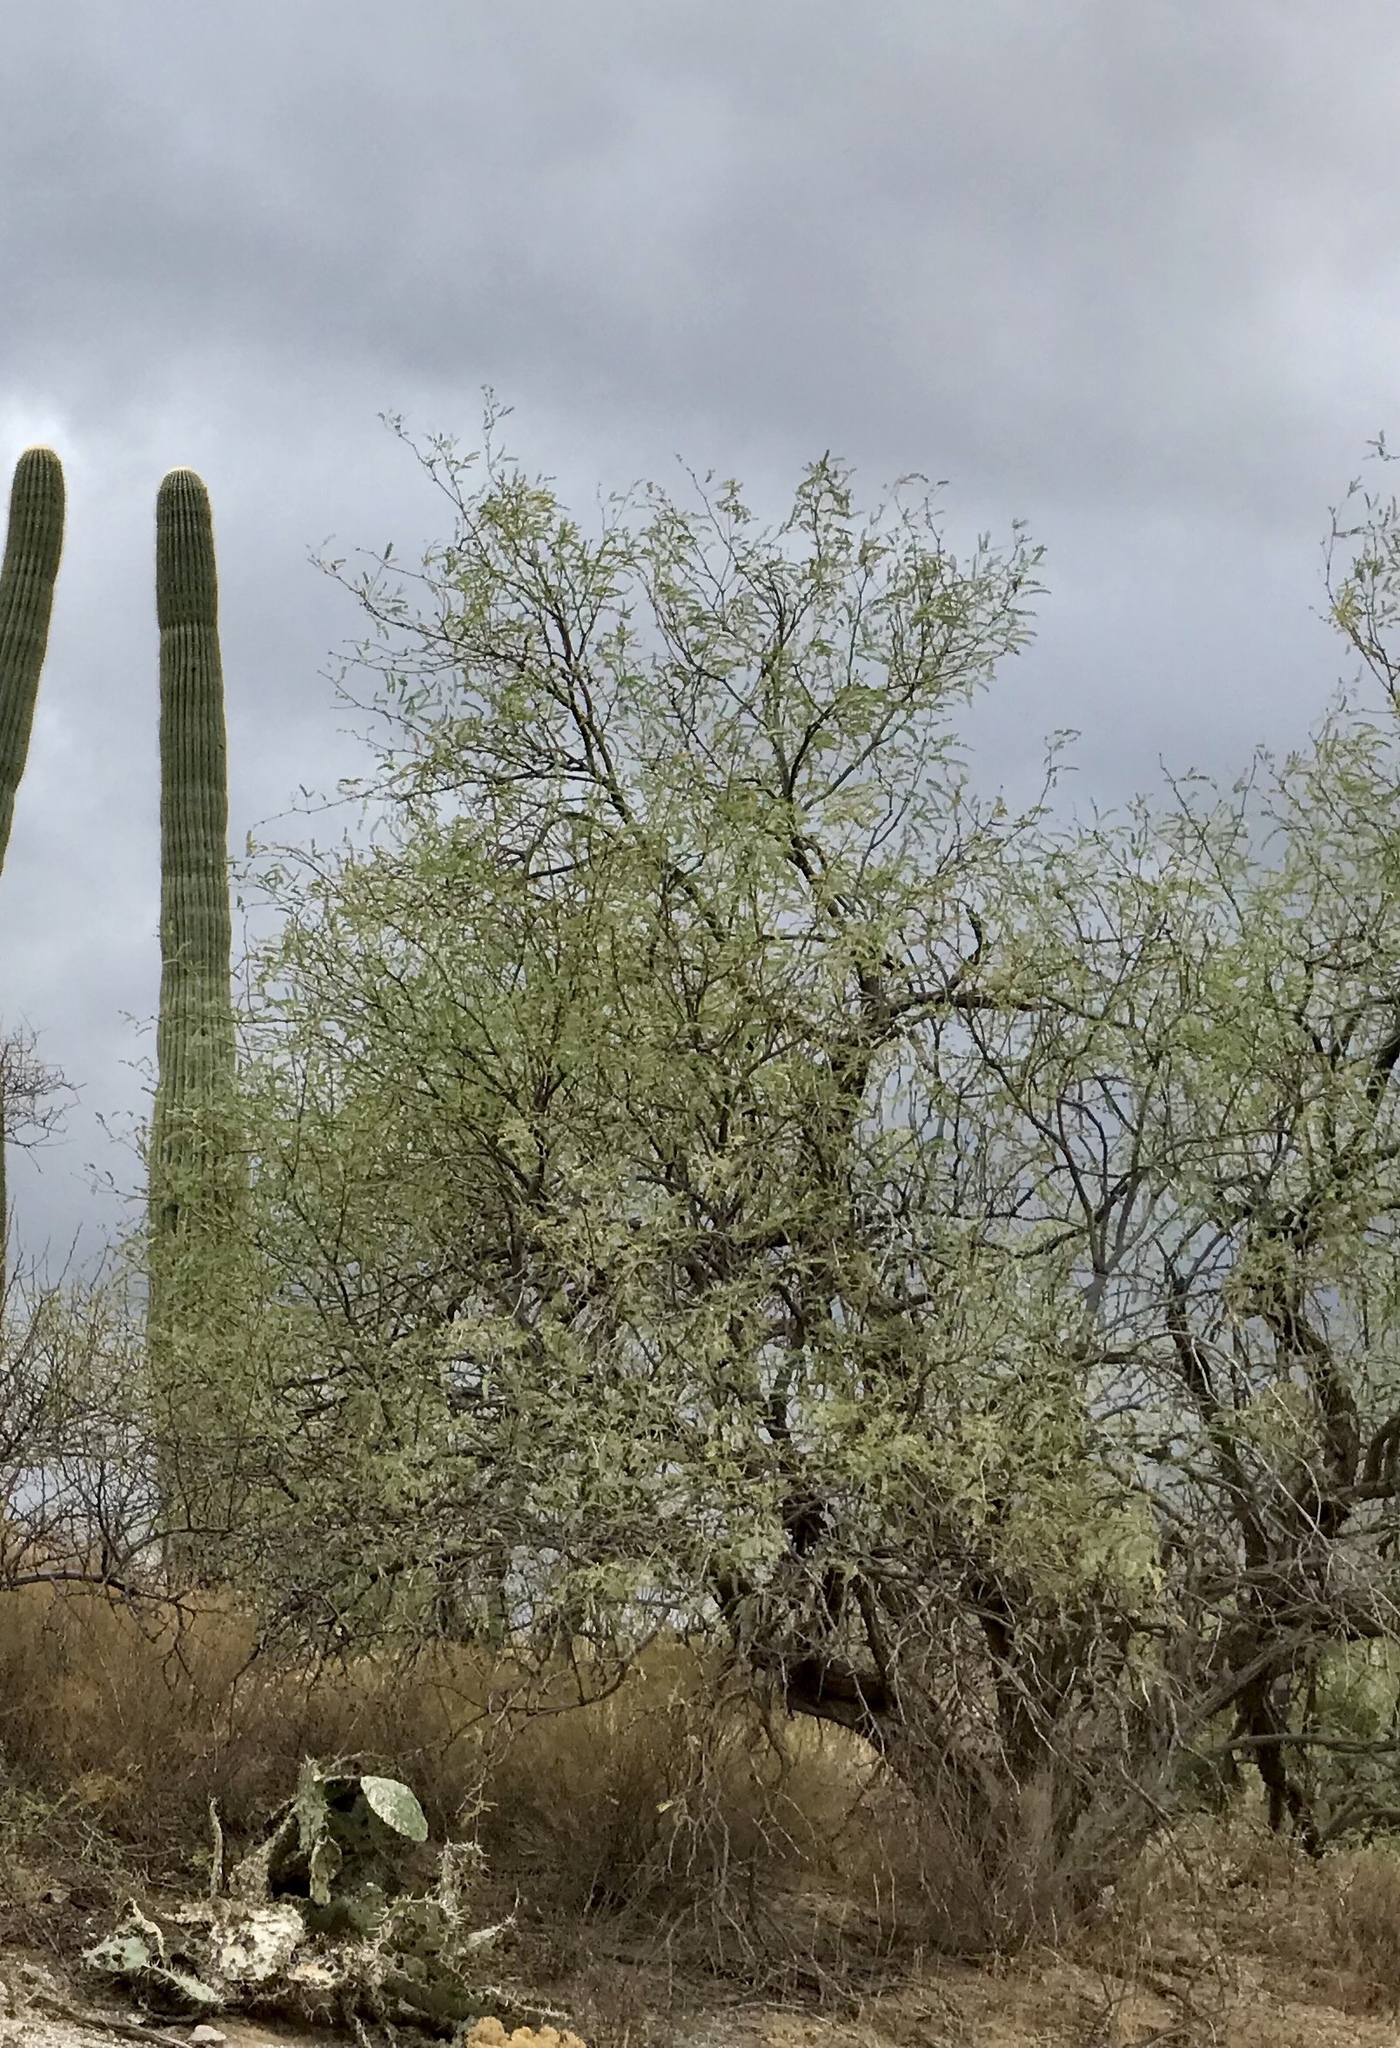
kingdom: Plantae
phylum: Tracheophyta
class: Magnoliopsida
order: Fabales
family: Fabaceae
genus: Prosopis
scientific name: Prosopis velutina
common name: Velvet mesquite
